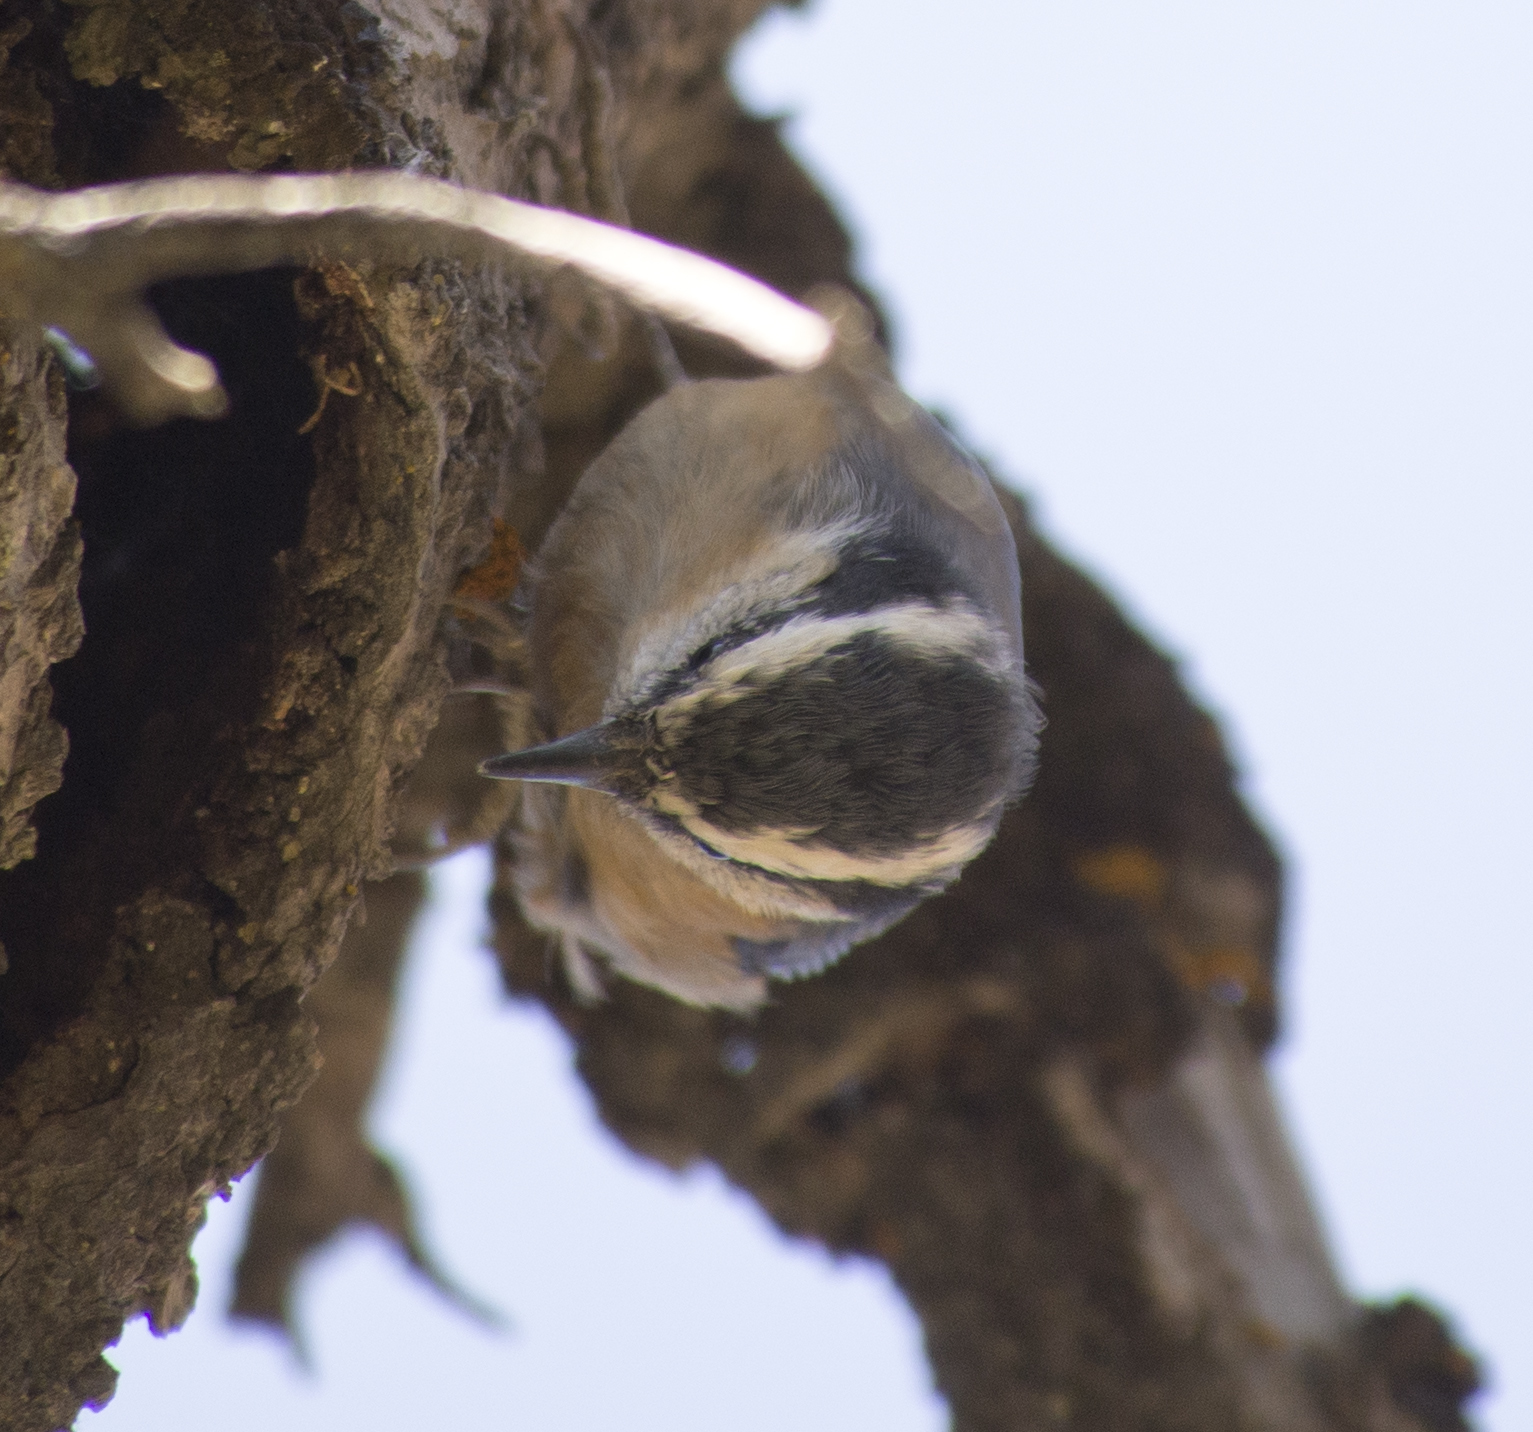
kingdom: Animalia
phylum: Chordata
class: Aves
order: Passeriformes
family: Sittidae
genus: Sitta
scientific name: Sitta canadensis
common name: Red-breasted nuthatch
